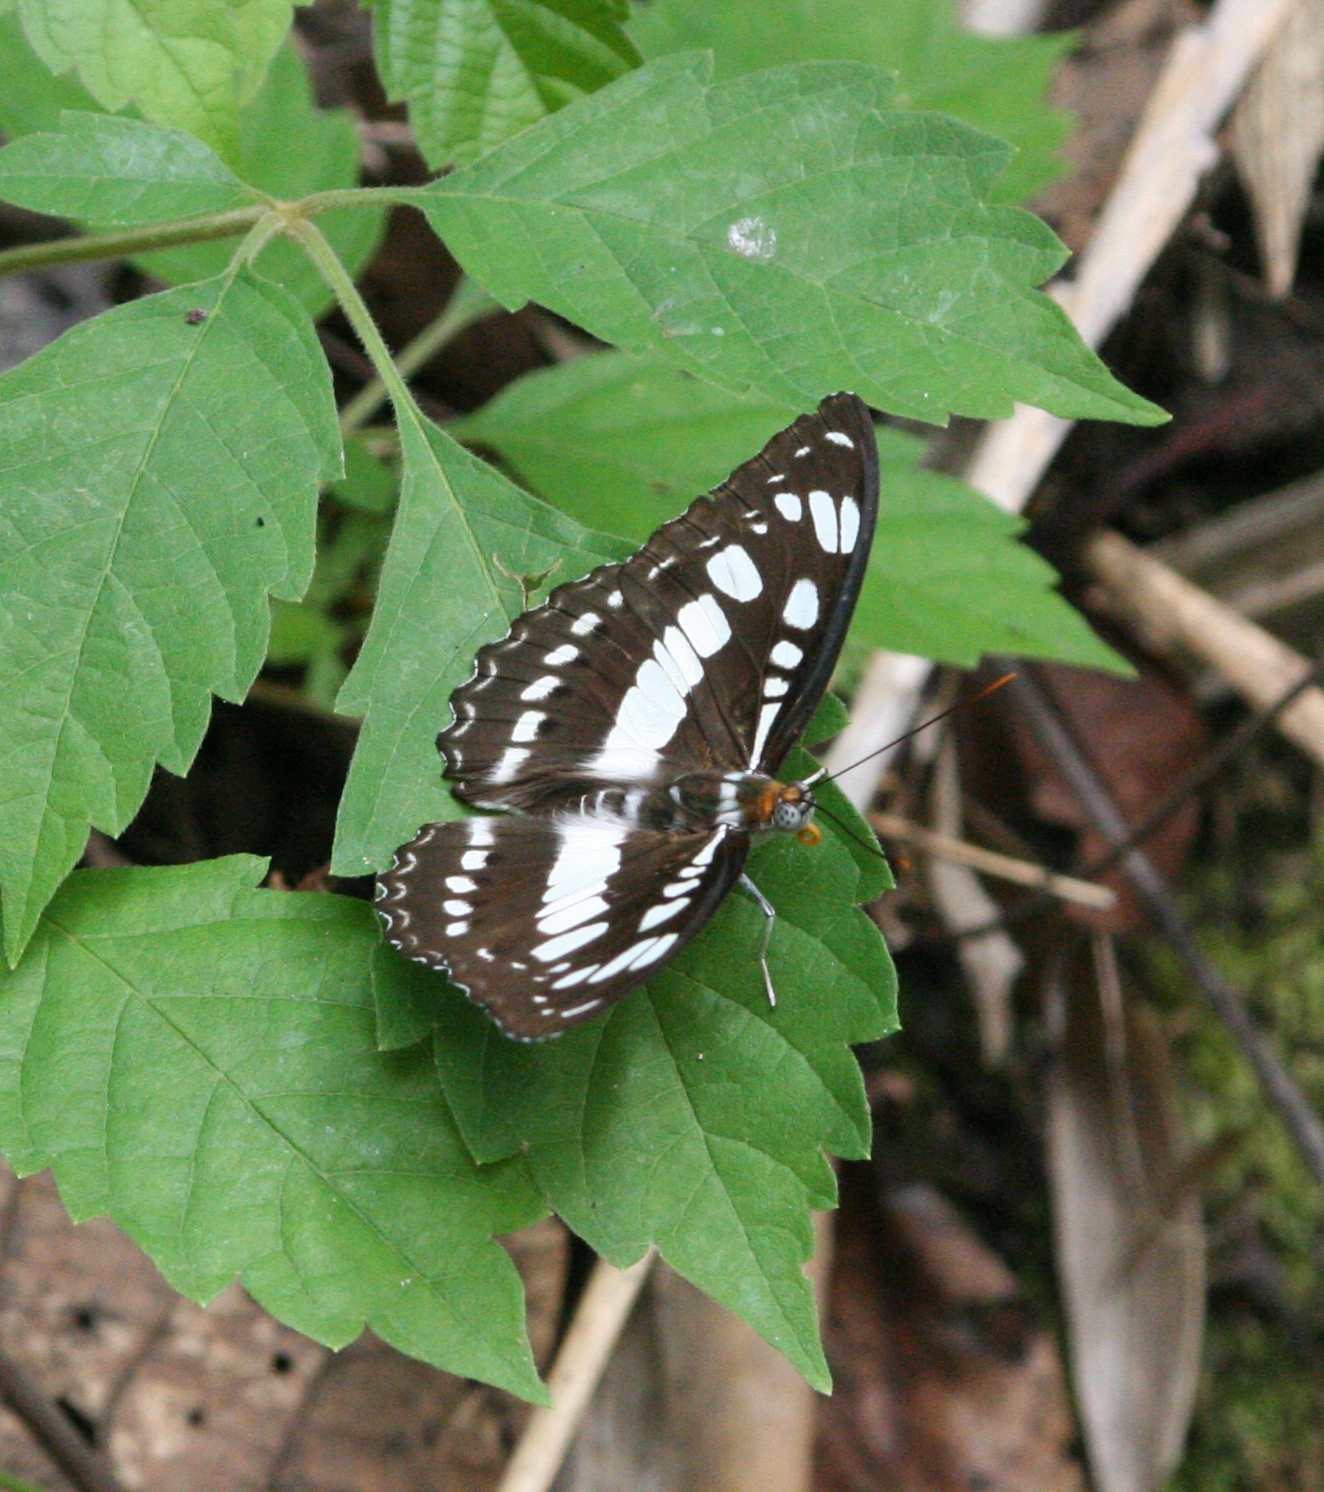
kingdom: Animalia
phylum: Arthropoda
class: Insecta
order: Lepidoptera
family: Nymphalidae
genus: Parathyma
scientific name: Parathyma perius
